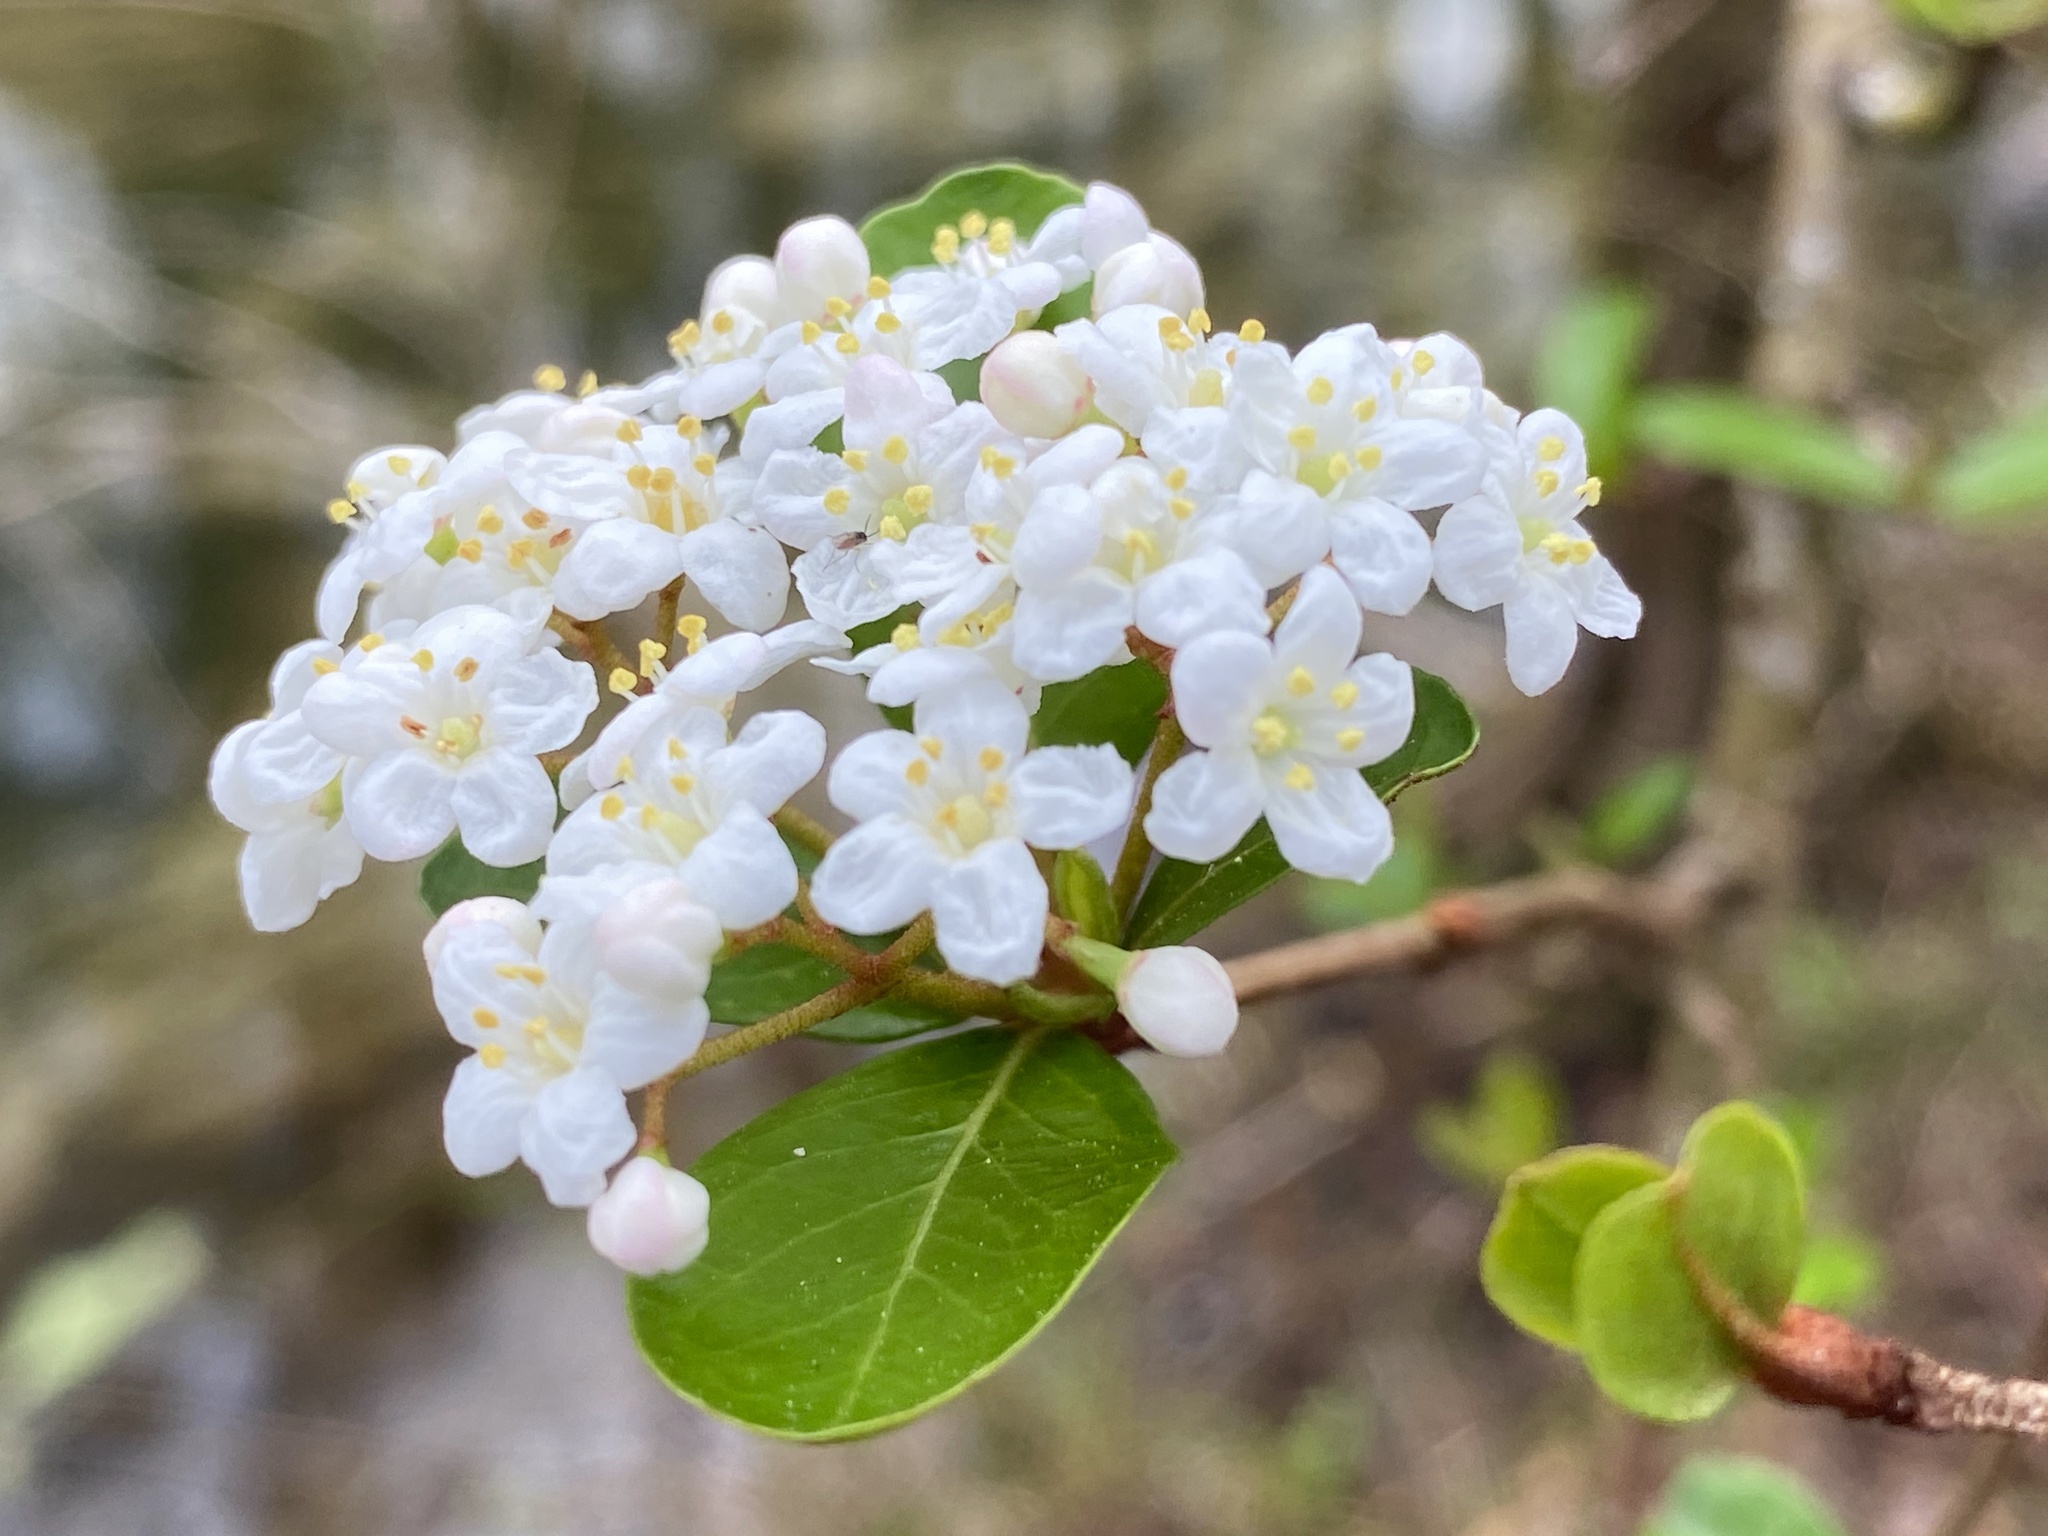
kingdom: Plantae
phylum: Tracheophyta
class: Magnoliopsida
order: Dipsacales
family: Viburnaceae
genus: Viburnum
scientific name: Viburnum obovatum
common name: Walter's viburnum
